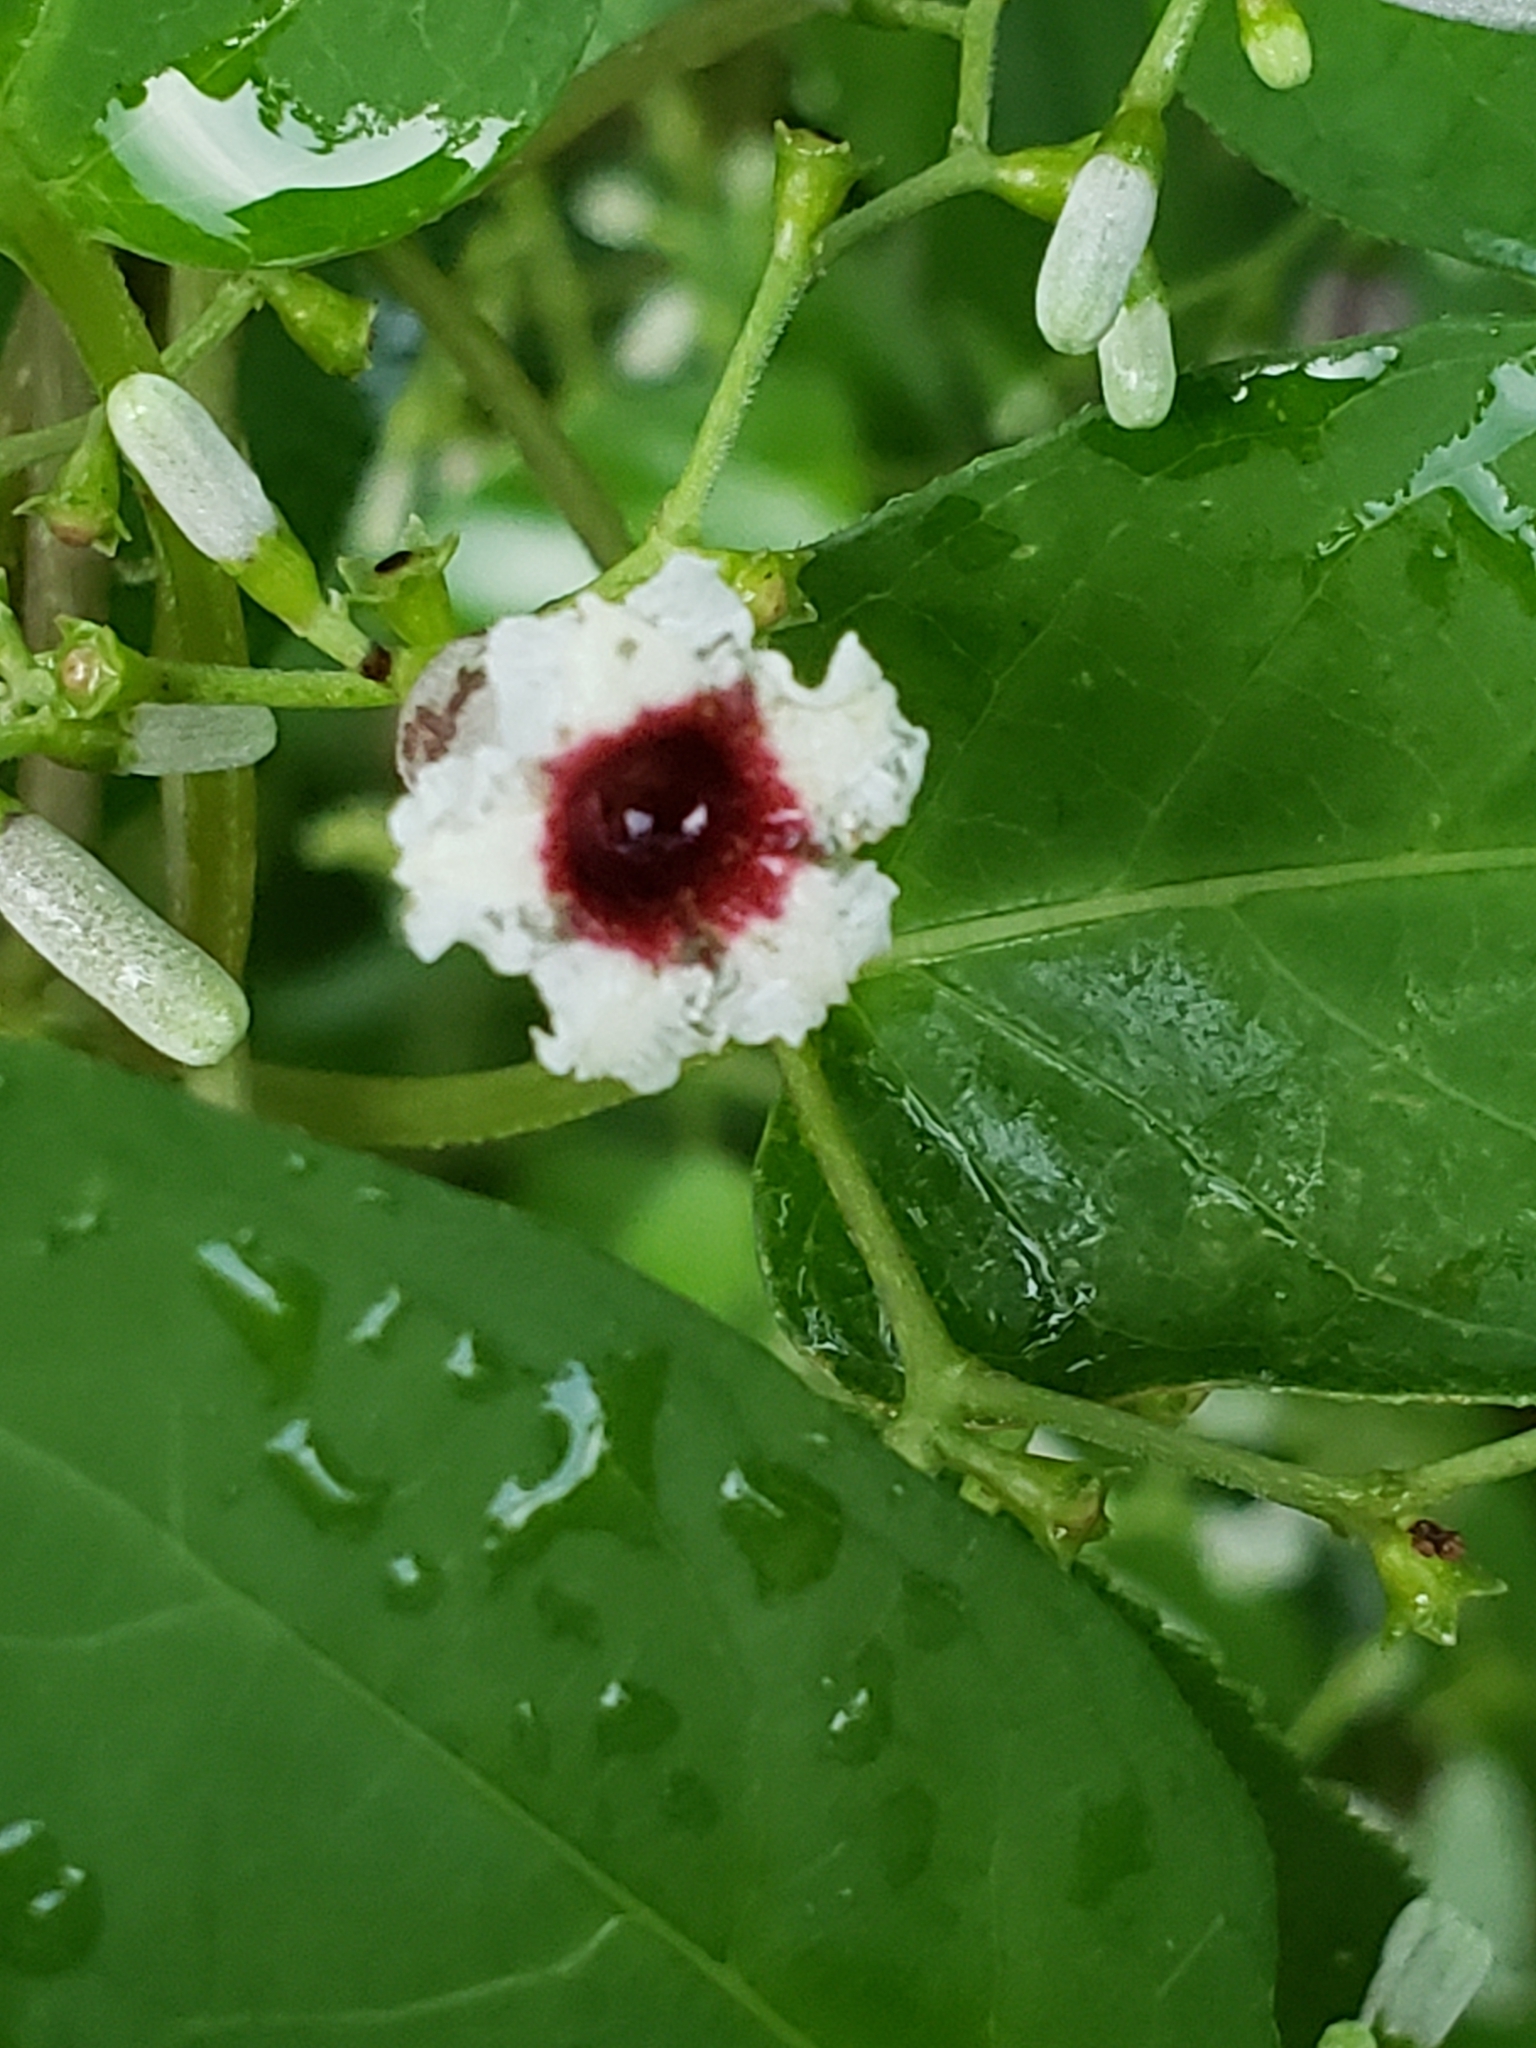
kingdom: Plantae
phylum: Tracheophyta
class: Magnoliopsida
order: Gentianales
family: Rubiaceae
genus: Paederia
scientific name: Paederia foetida
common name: Stinkvine
